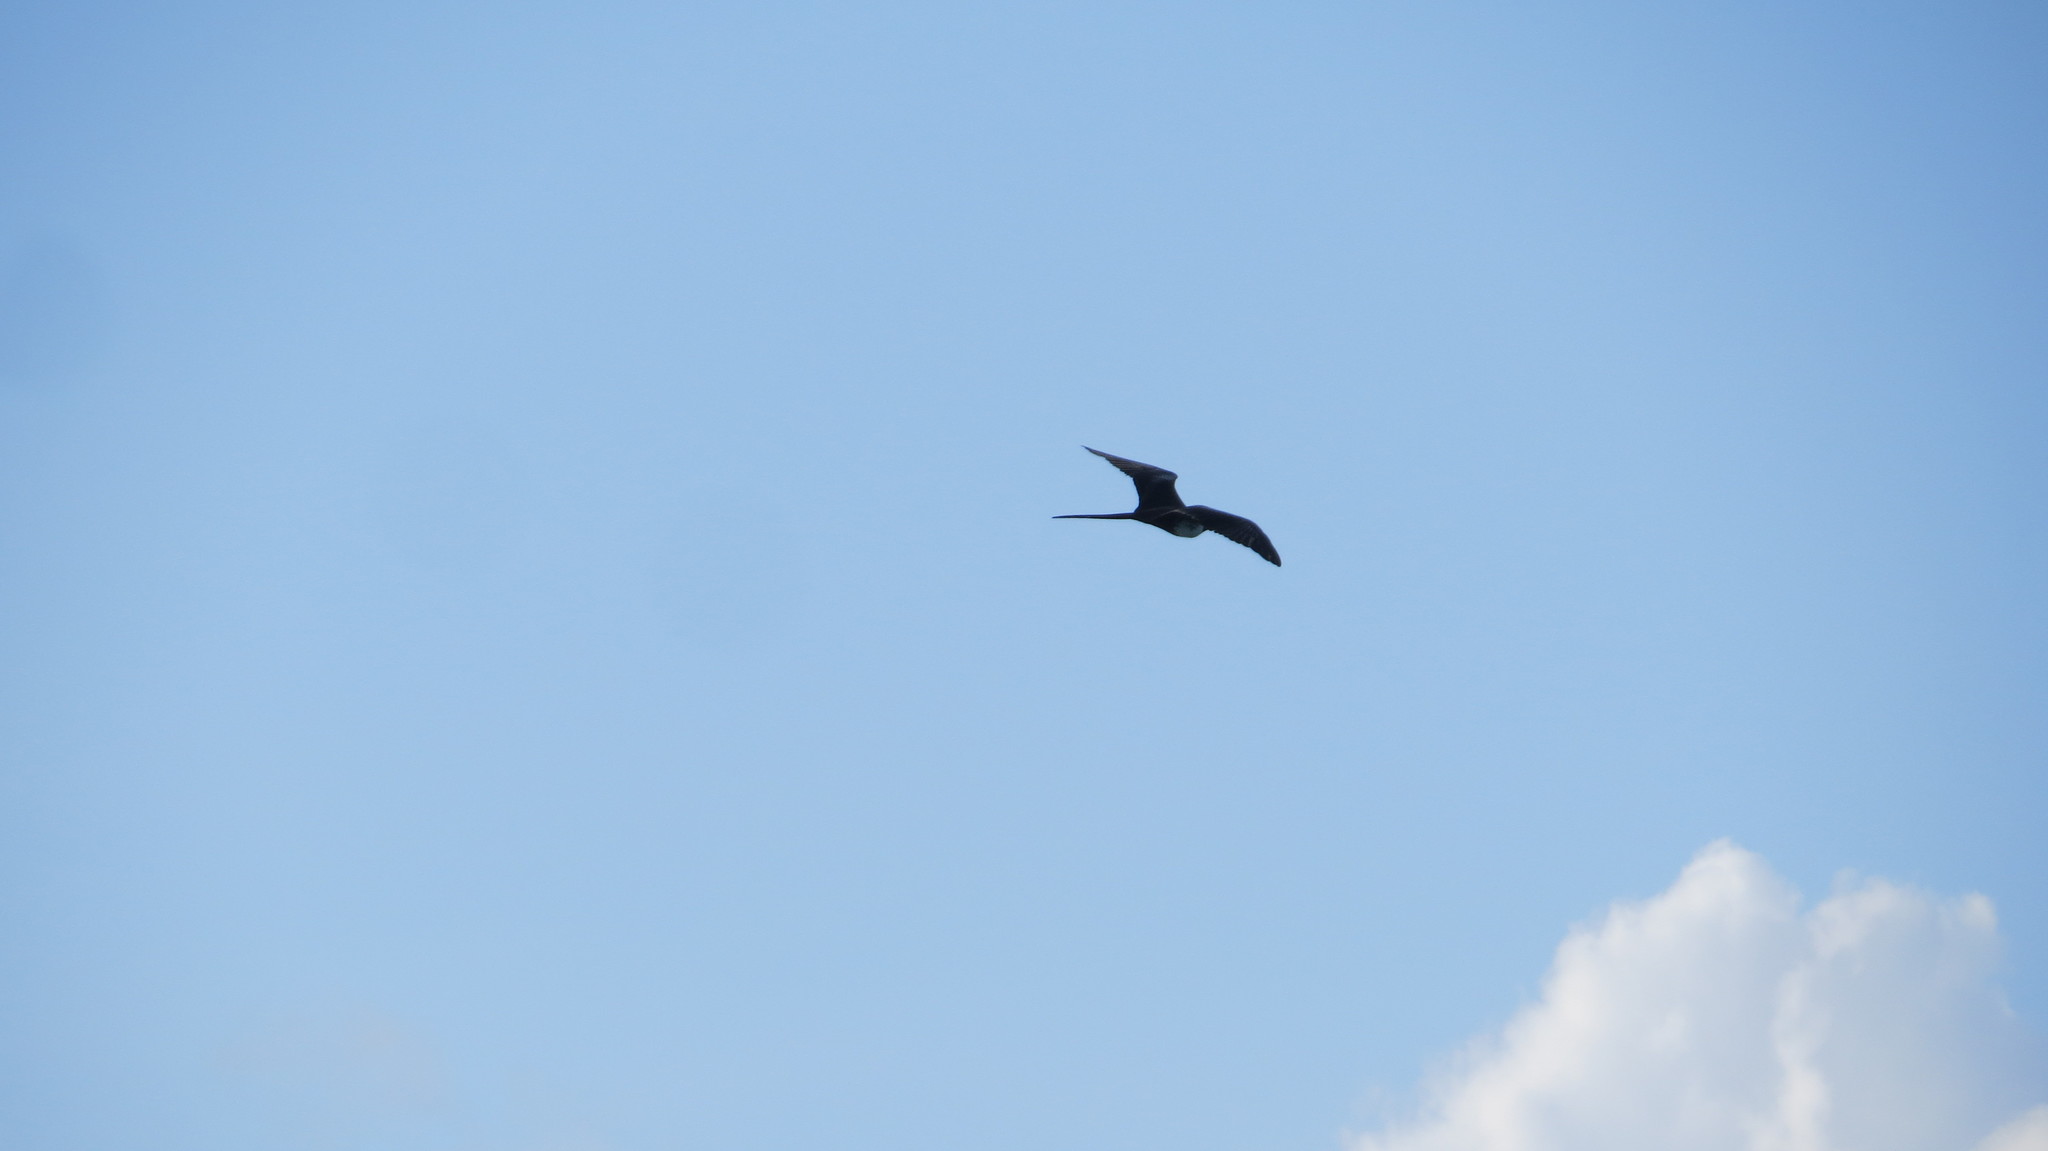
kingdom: Animalia
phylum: Chordata
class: Aves
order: Suliformes
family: Fregatidae
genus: Fregata
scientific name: Fregata magnificens
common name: Magnificent frigatebird
